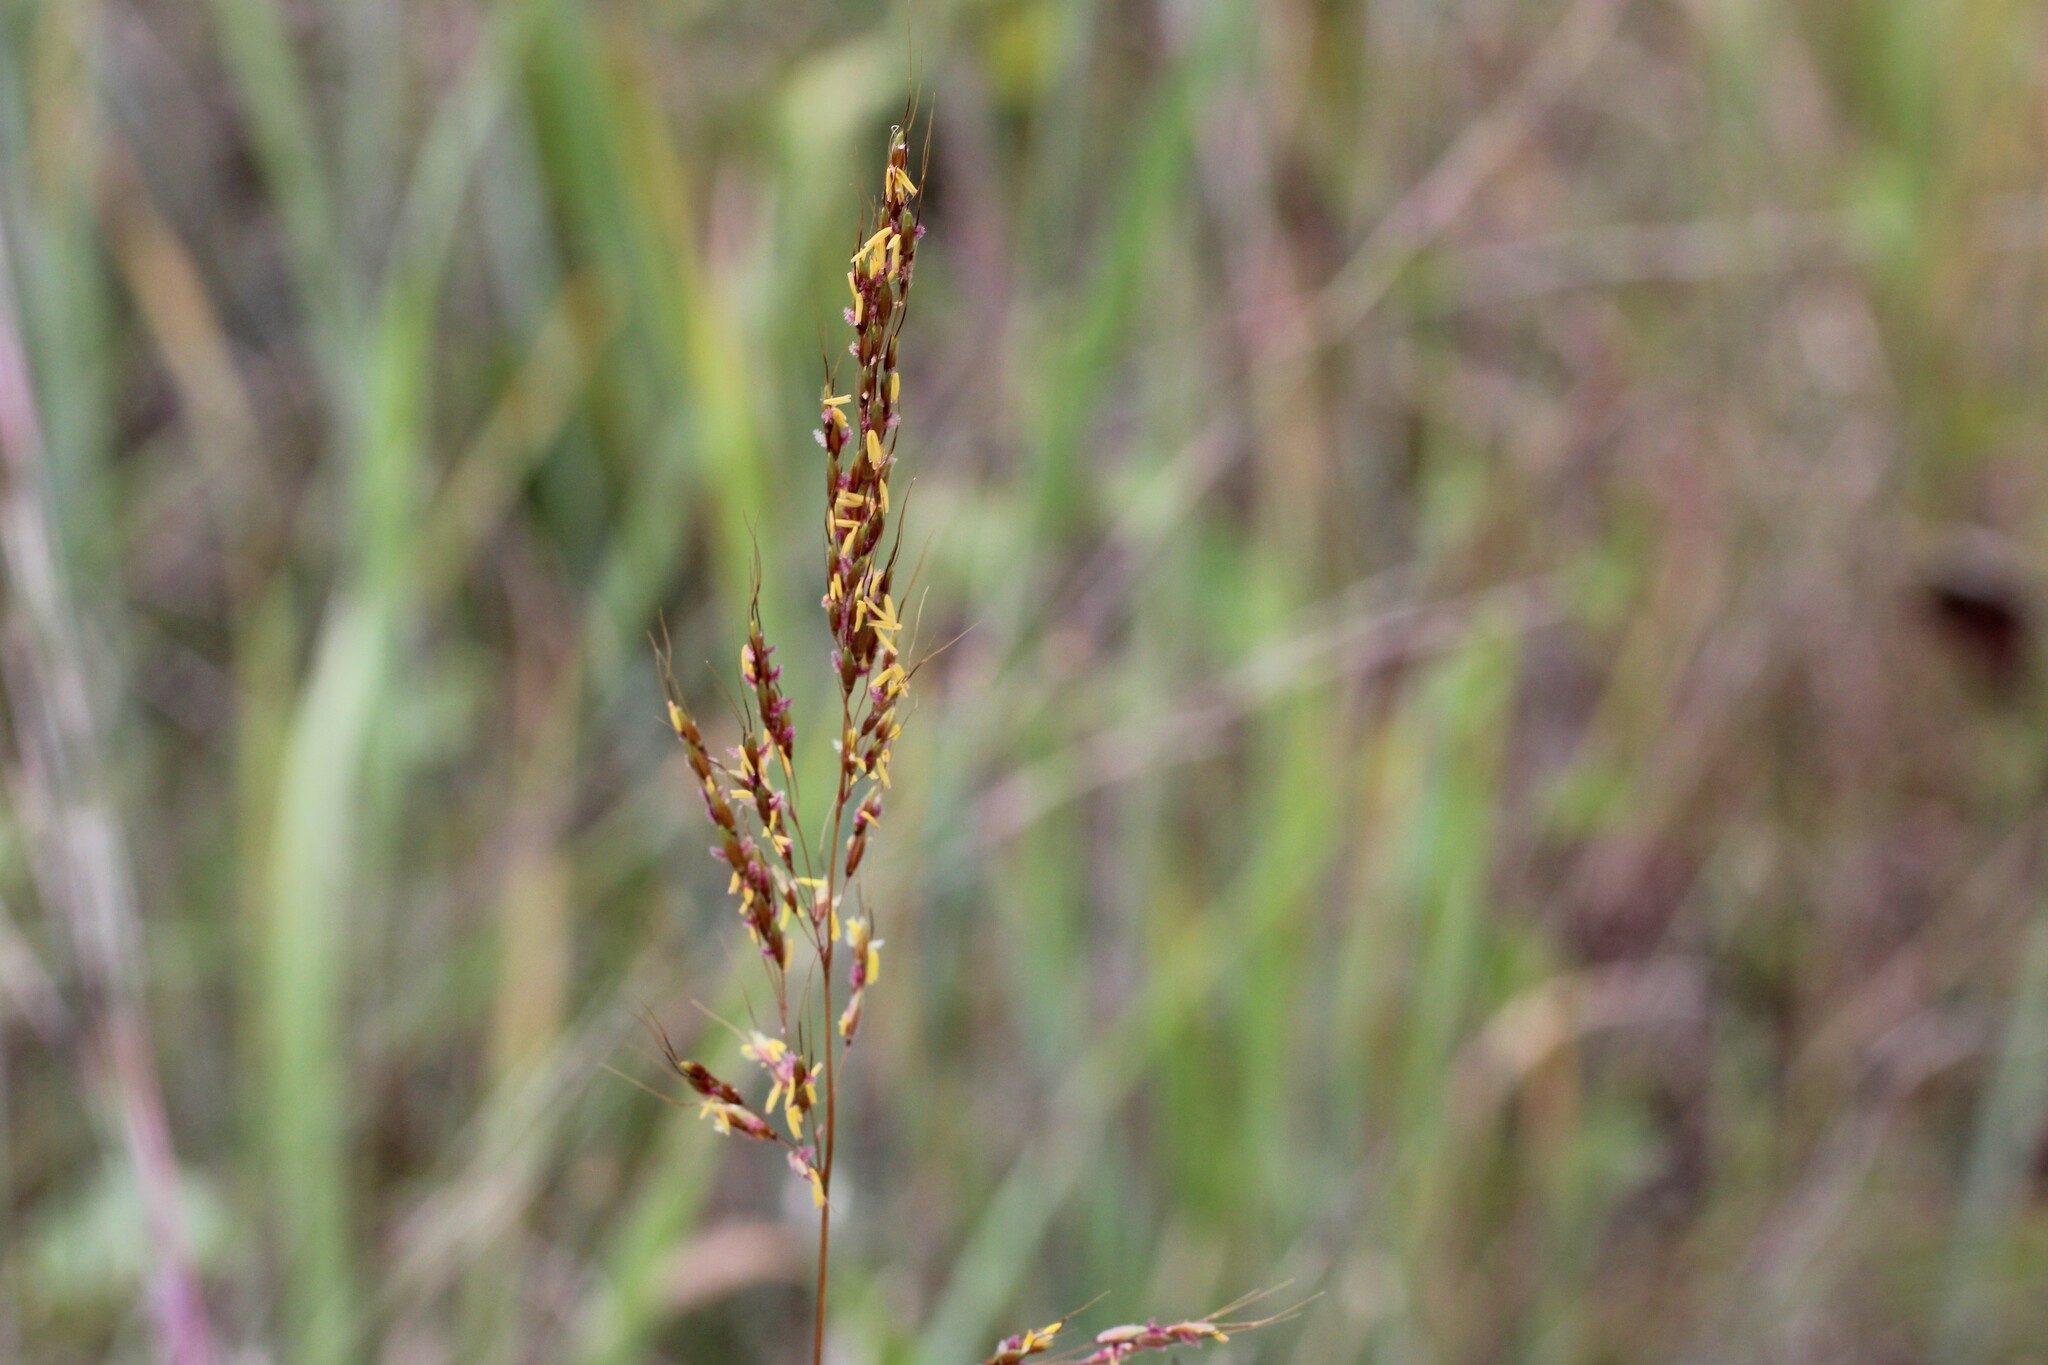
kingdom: Plantae
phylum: Tracheophyta
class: Liliopsida
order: Poales
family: Poaceae
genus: Sorghastrum
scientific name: Sorghastrum nutans
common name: Indian grass
